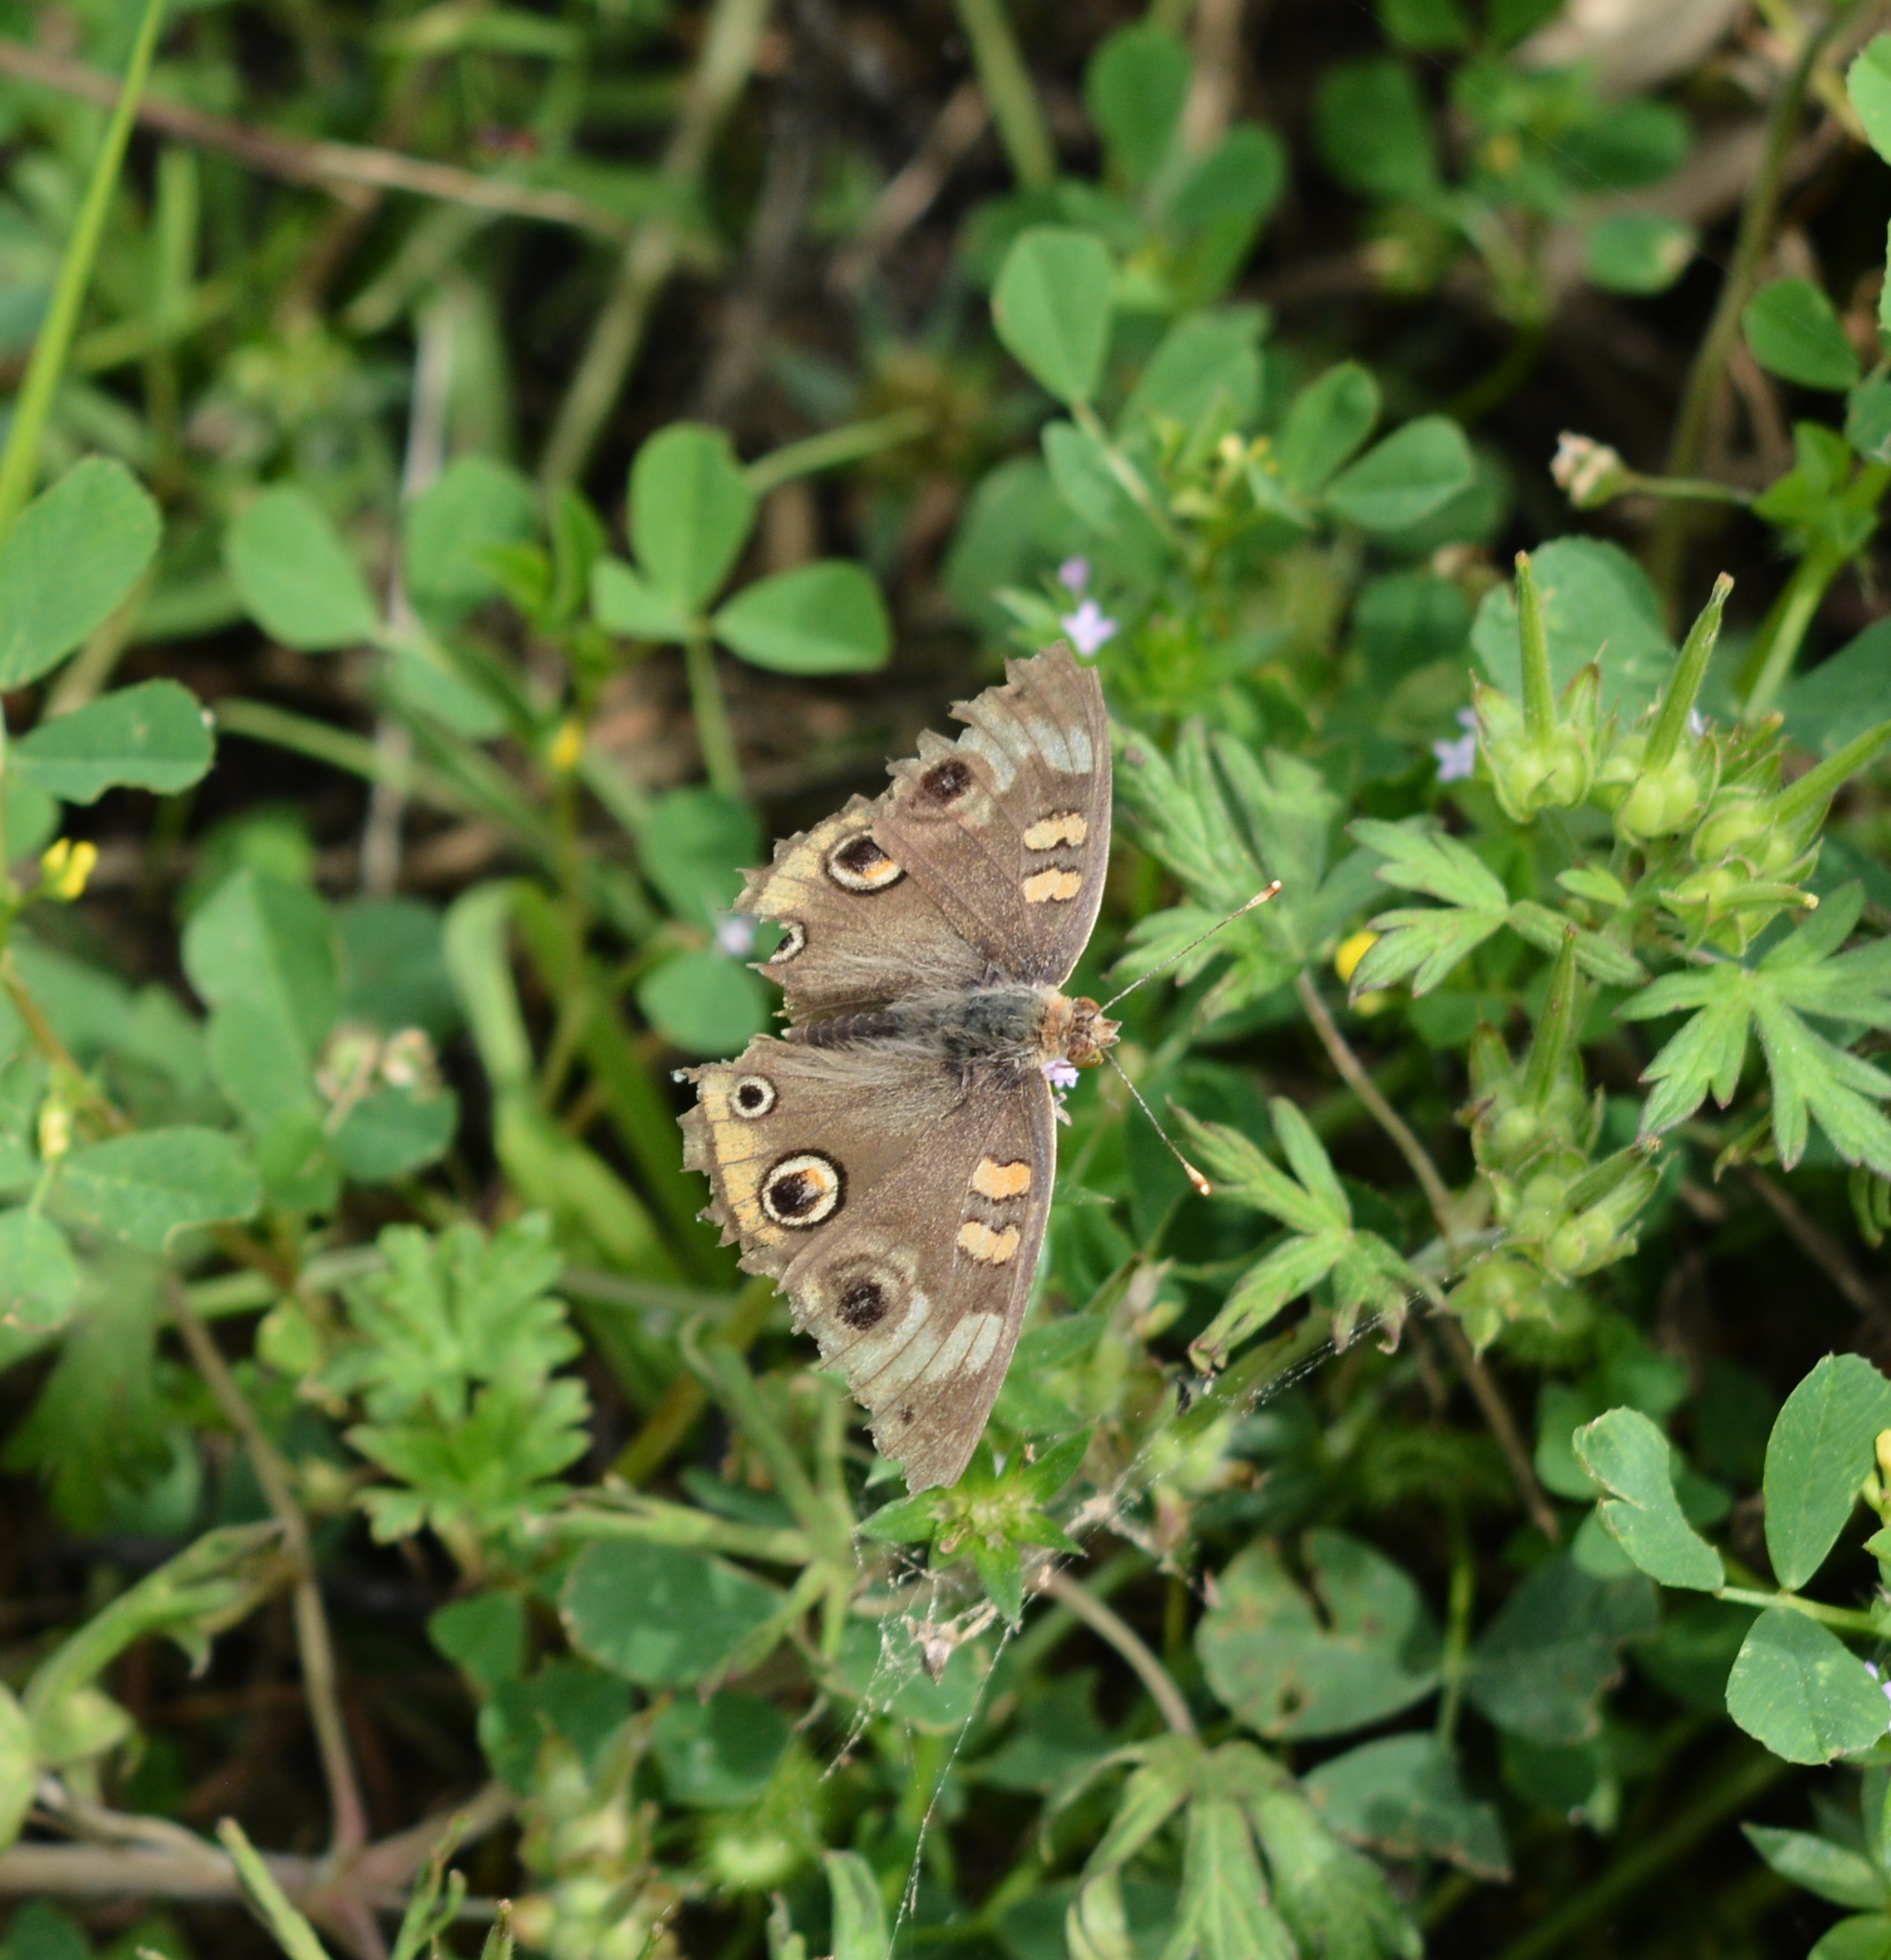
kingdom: Animalia
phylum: Arthropoda
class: Insecta
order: Lepidoptera
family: Nymphalidae
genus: Junonia
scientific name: Junonia coenia
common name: Common buckeye
